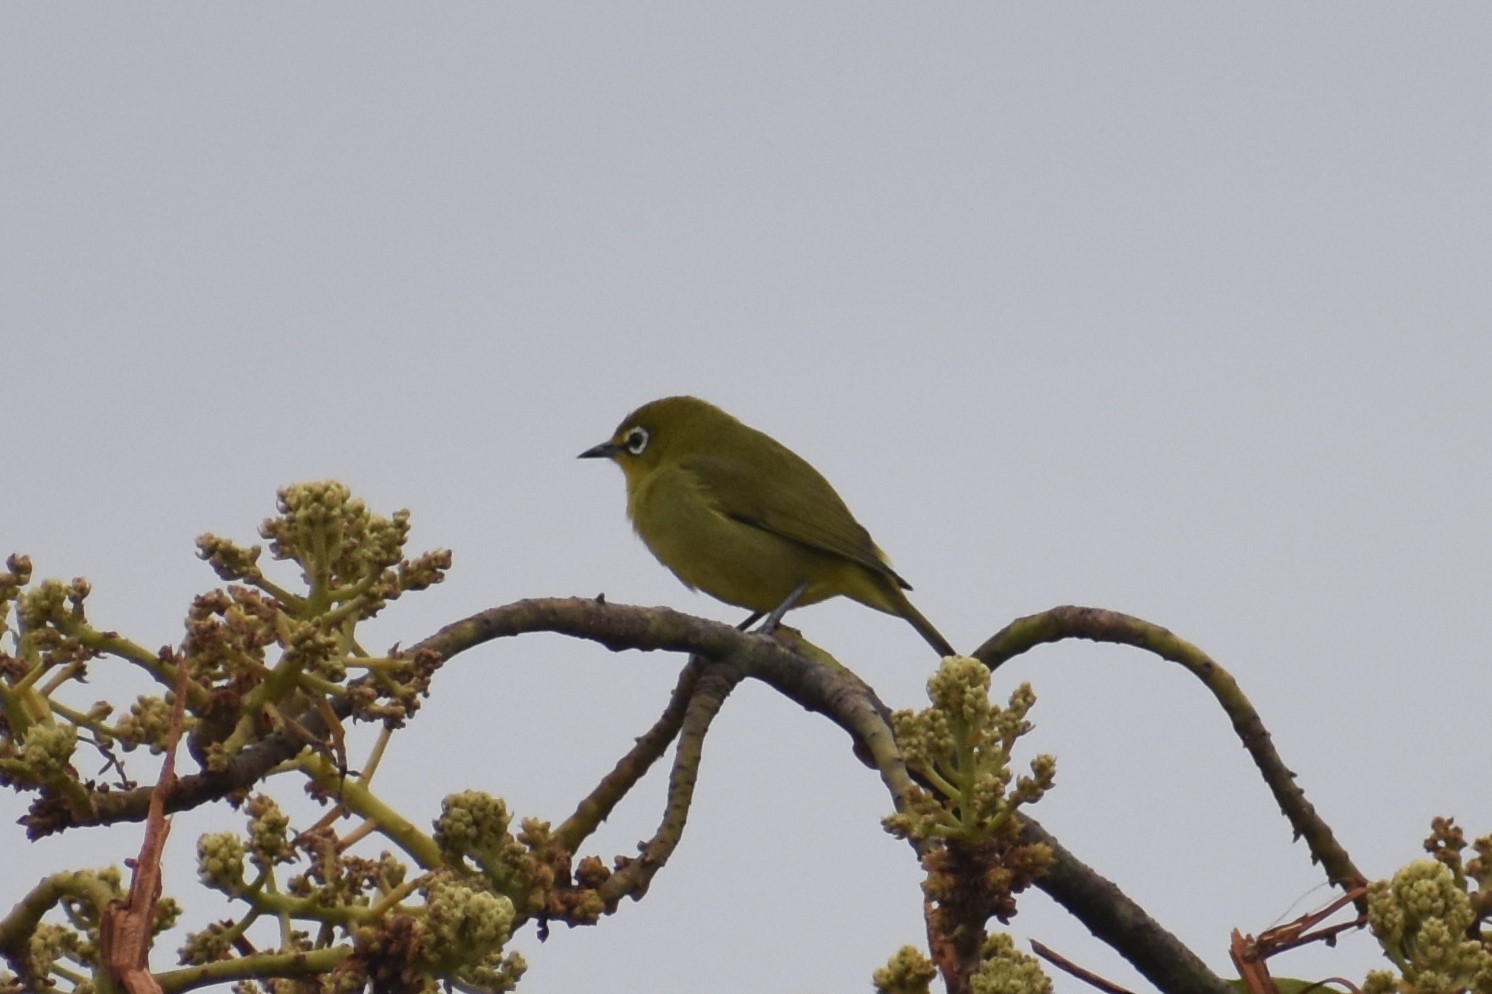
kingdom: Animalia
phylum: Chordata
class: Aves
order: Passeriformes
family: Zosteropidae
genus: Zosterops
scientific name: Zosterops virens
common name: Cape white-eye
